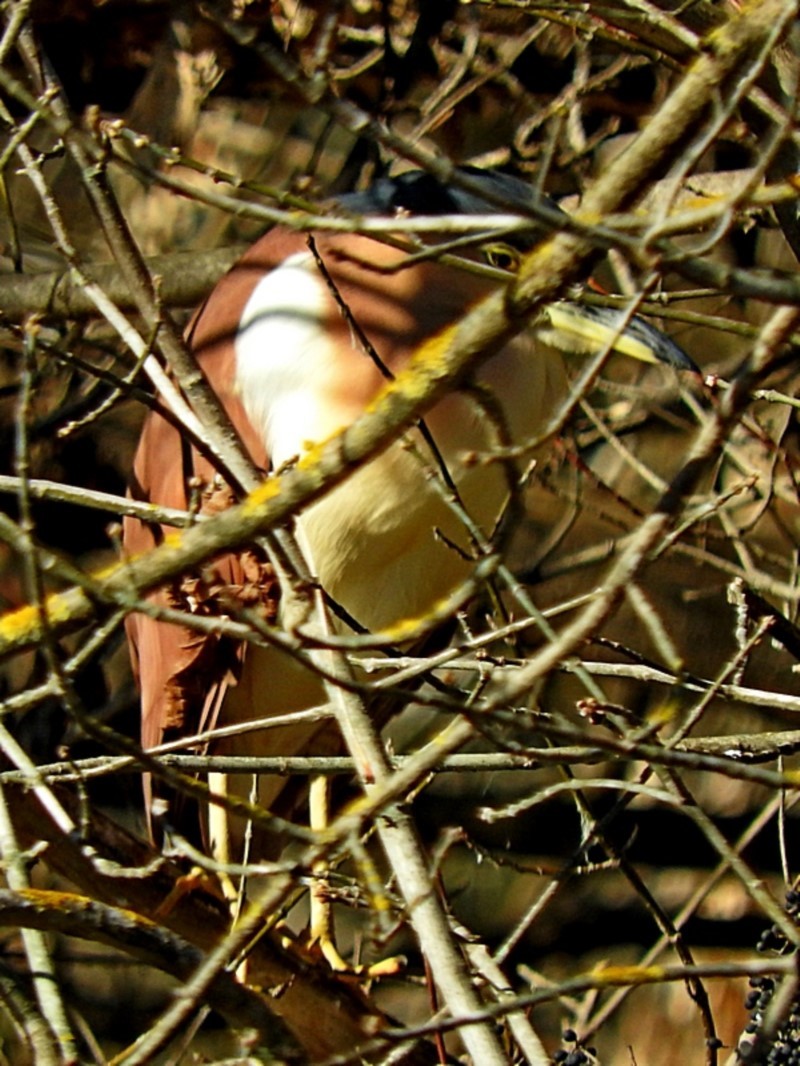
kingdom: Animalia
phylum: Chordata
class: Aves
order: Pelecaniformes
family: Ardeidae
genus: Nycticorax
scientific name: Nycticorax caledonicus
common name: Rufous night-heron
